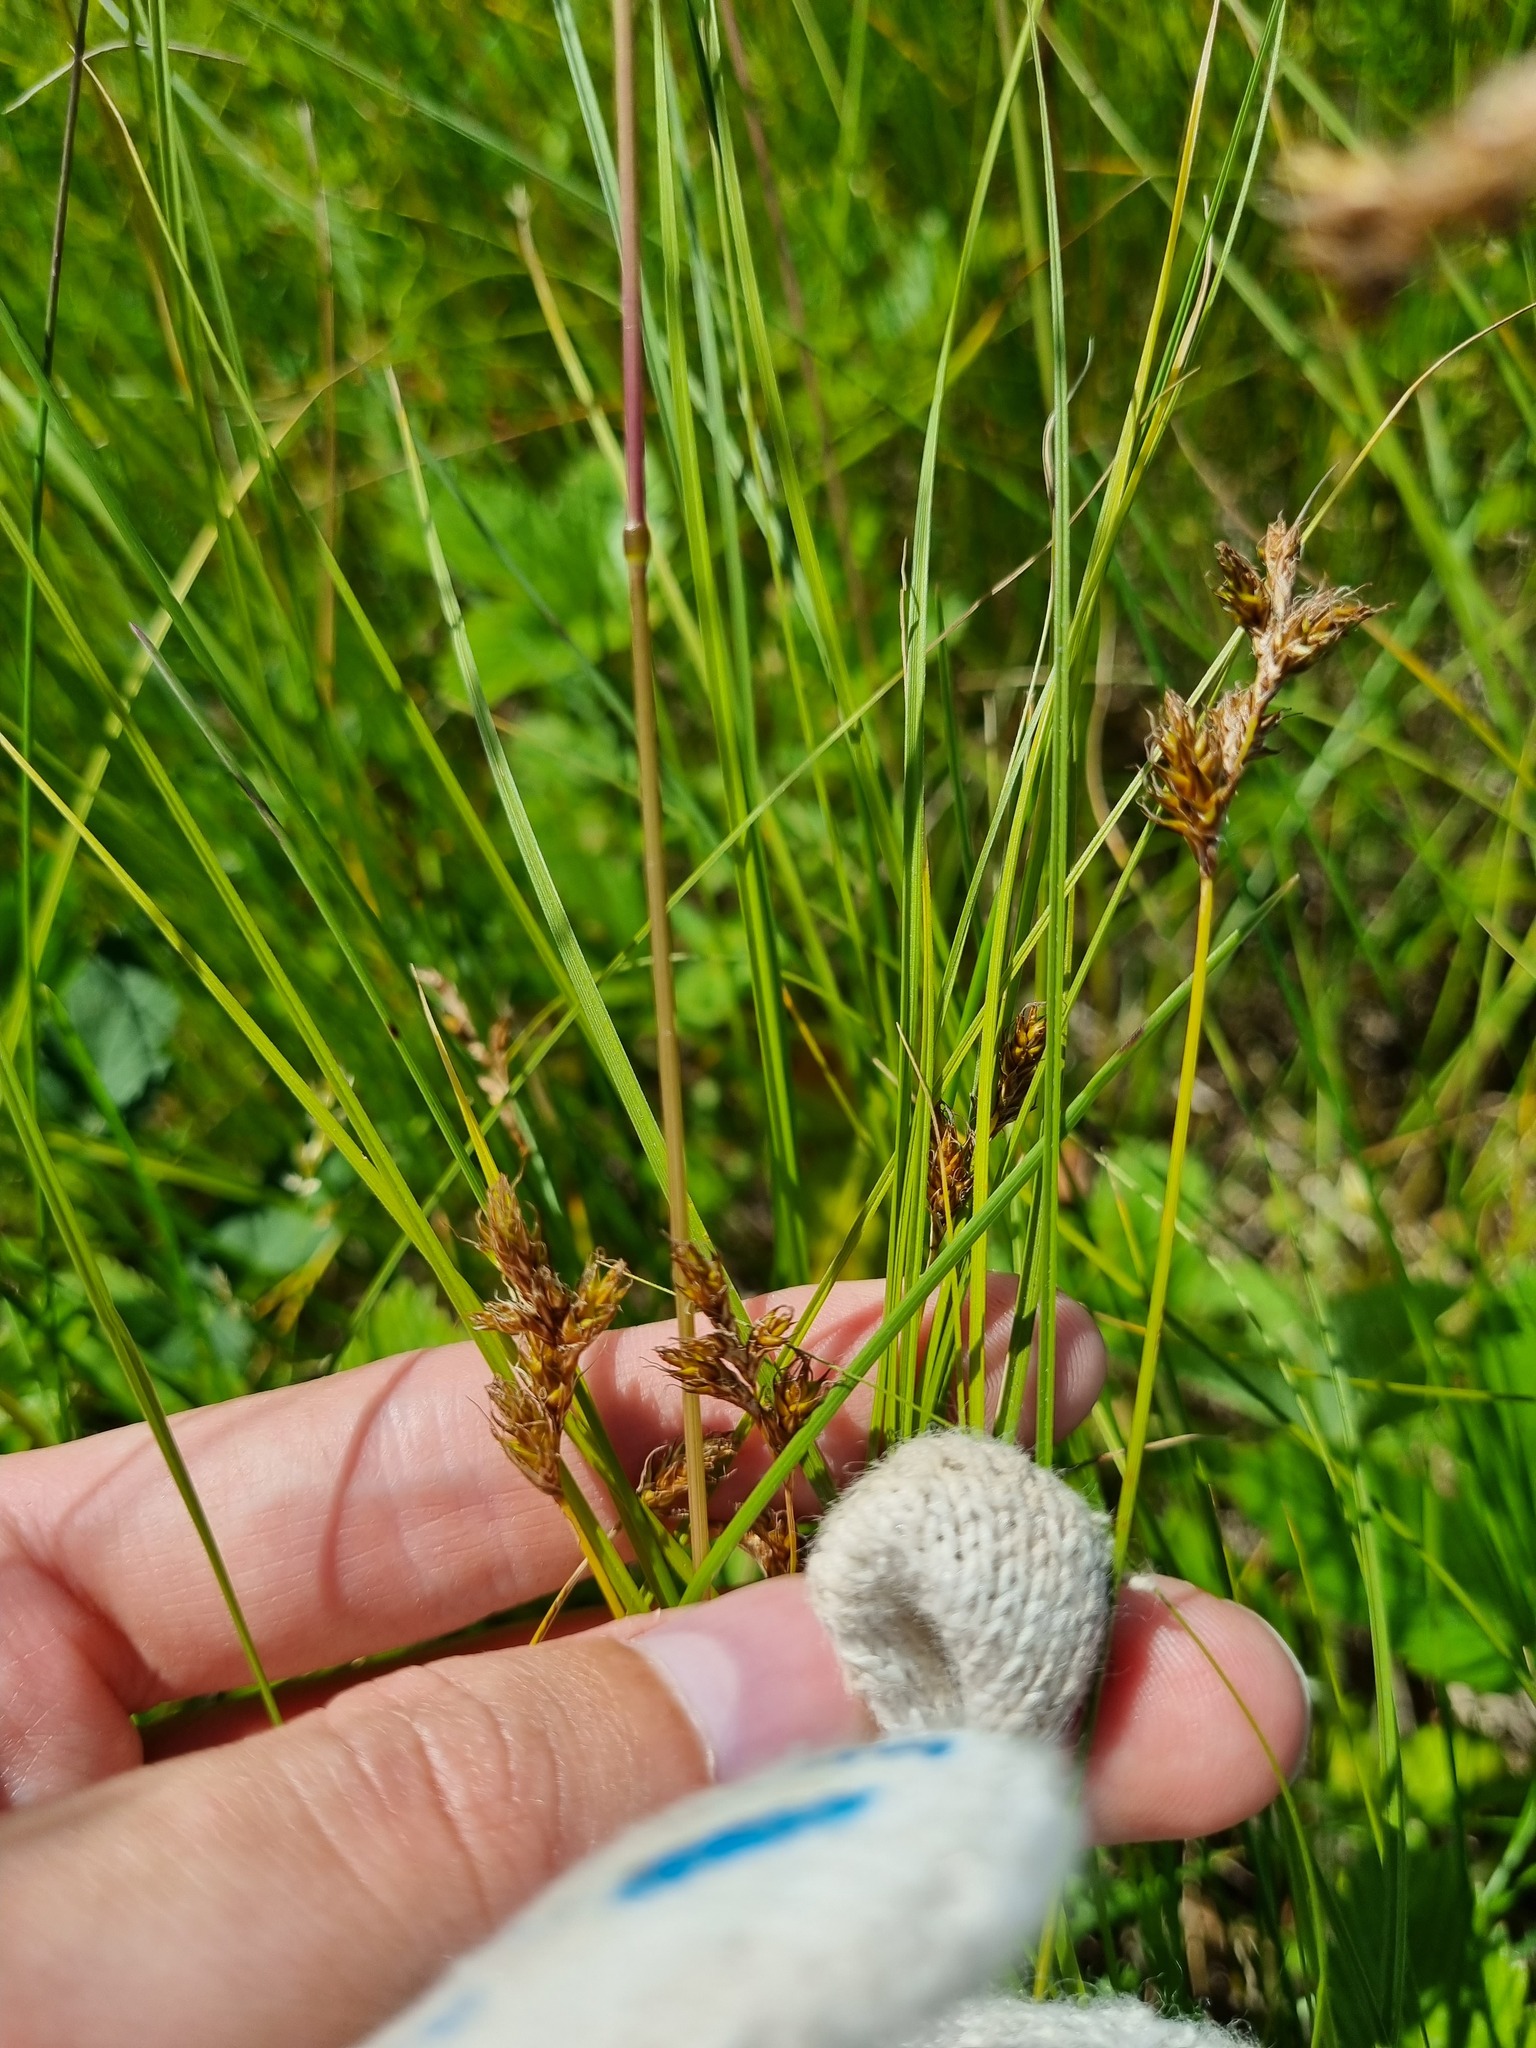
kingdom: Plantae
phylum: Tracheophyta
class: Liliopsida
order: Poales
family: Cyperaceae
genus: Carex
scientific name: Carex praecox
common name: Early sedge
